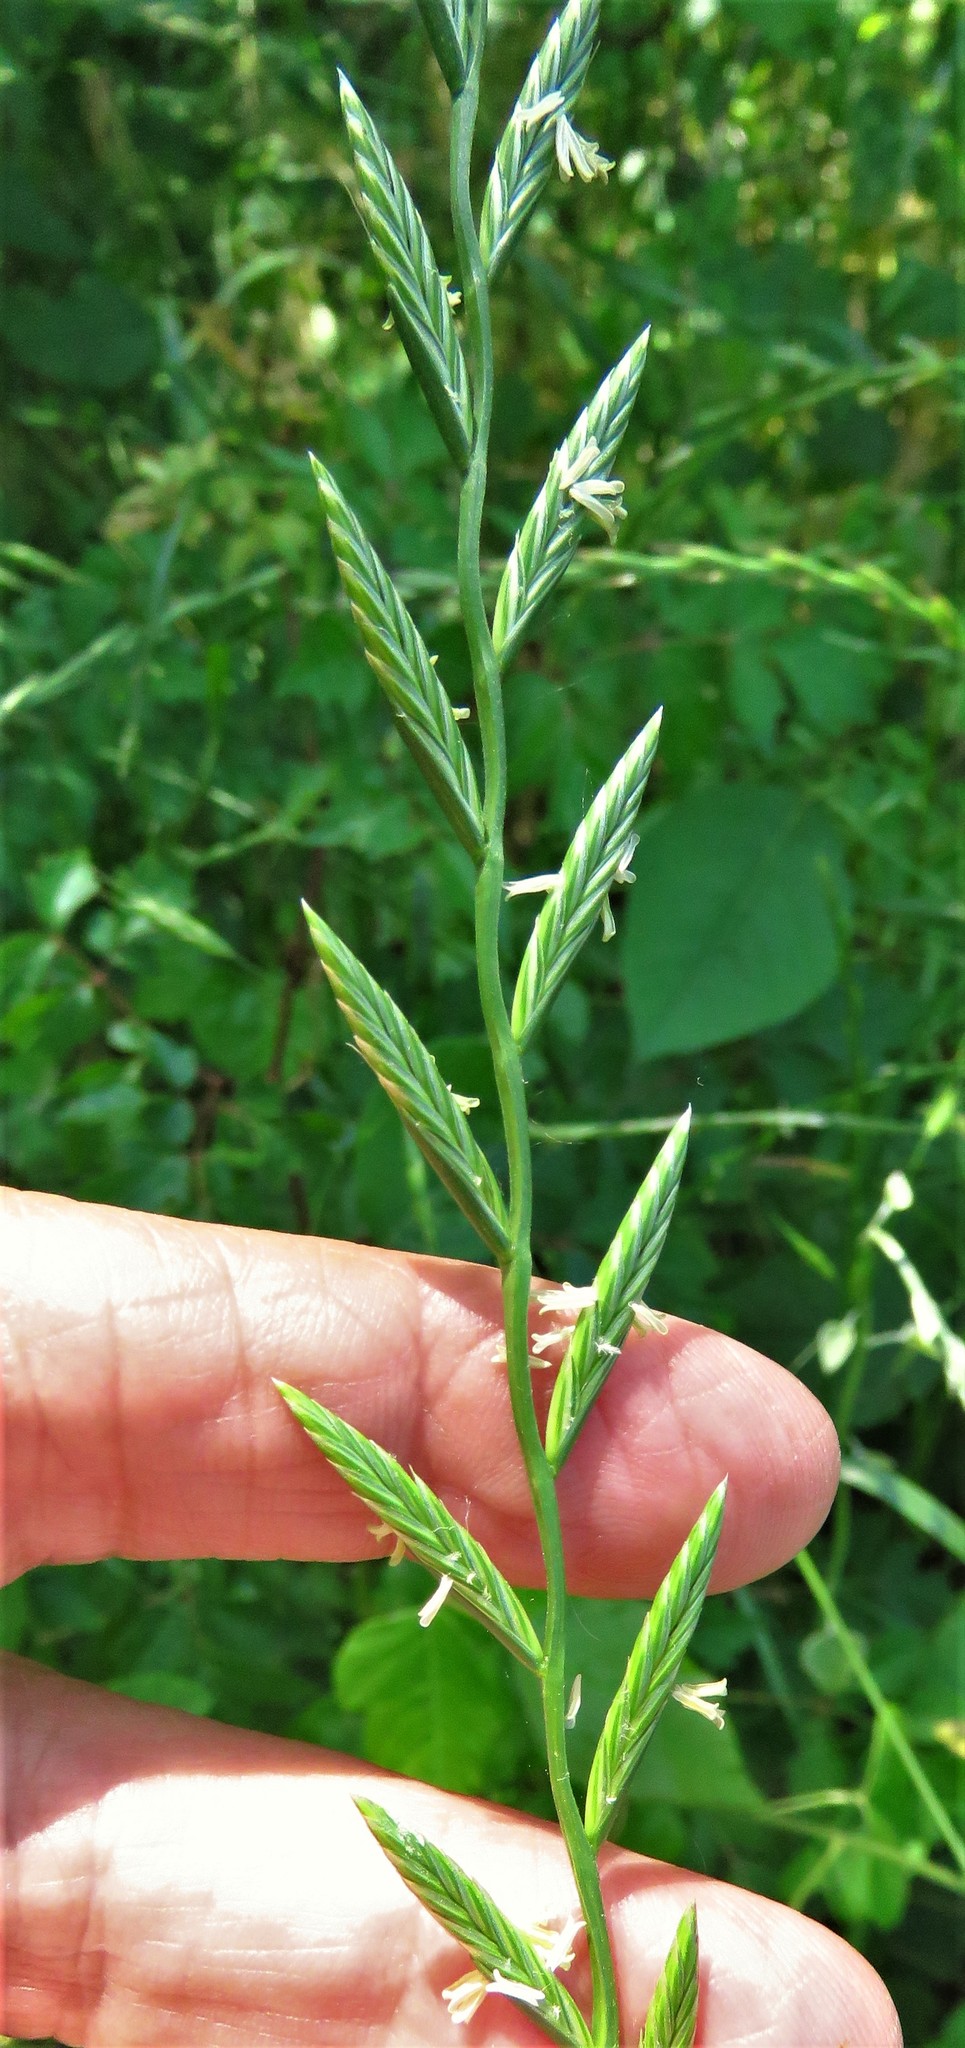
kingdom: Plantae
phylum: Tracheophyta
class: Liliopsida
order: Poales
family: Poaceae
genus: Lolium
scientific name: Lolium perenne
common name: Perennial ryegrass
